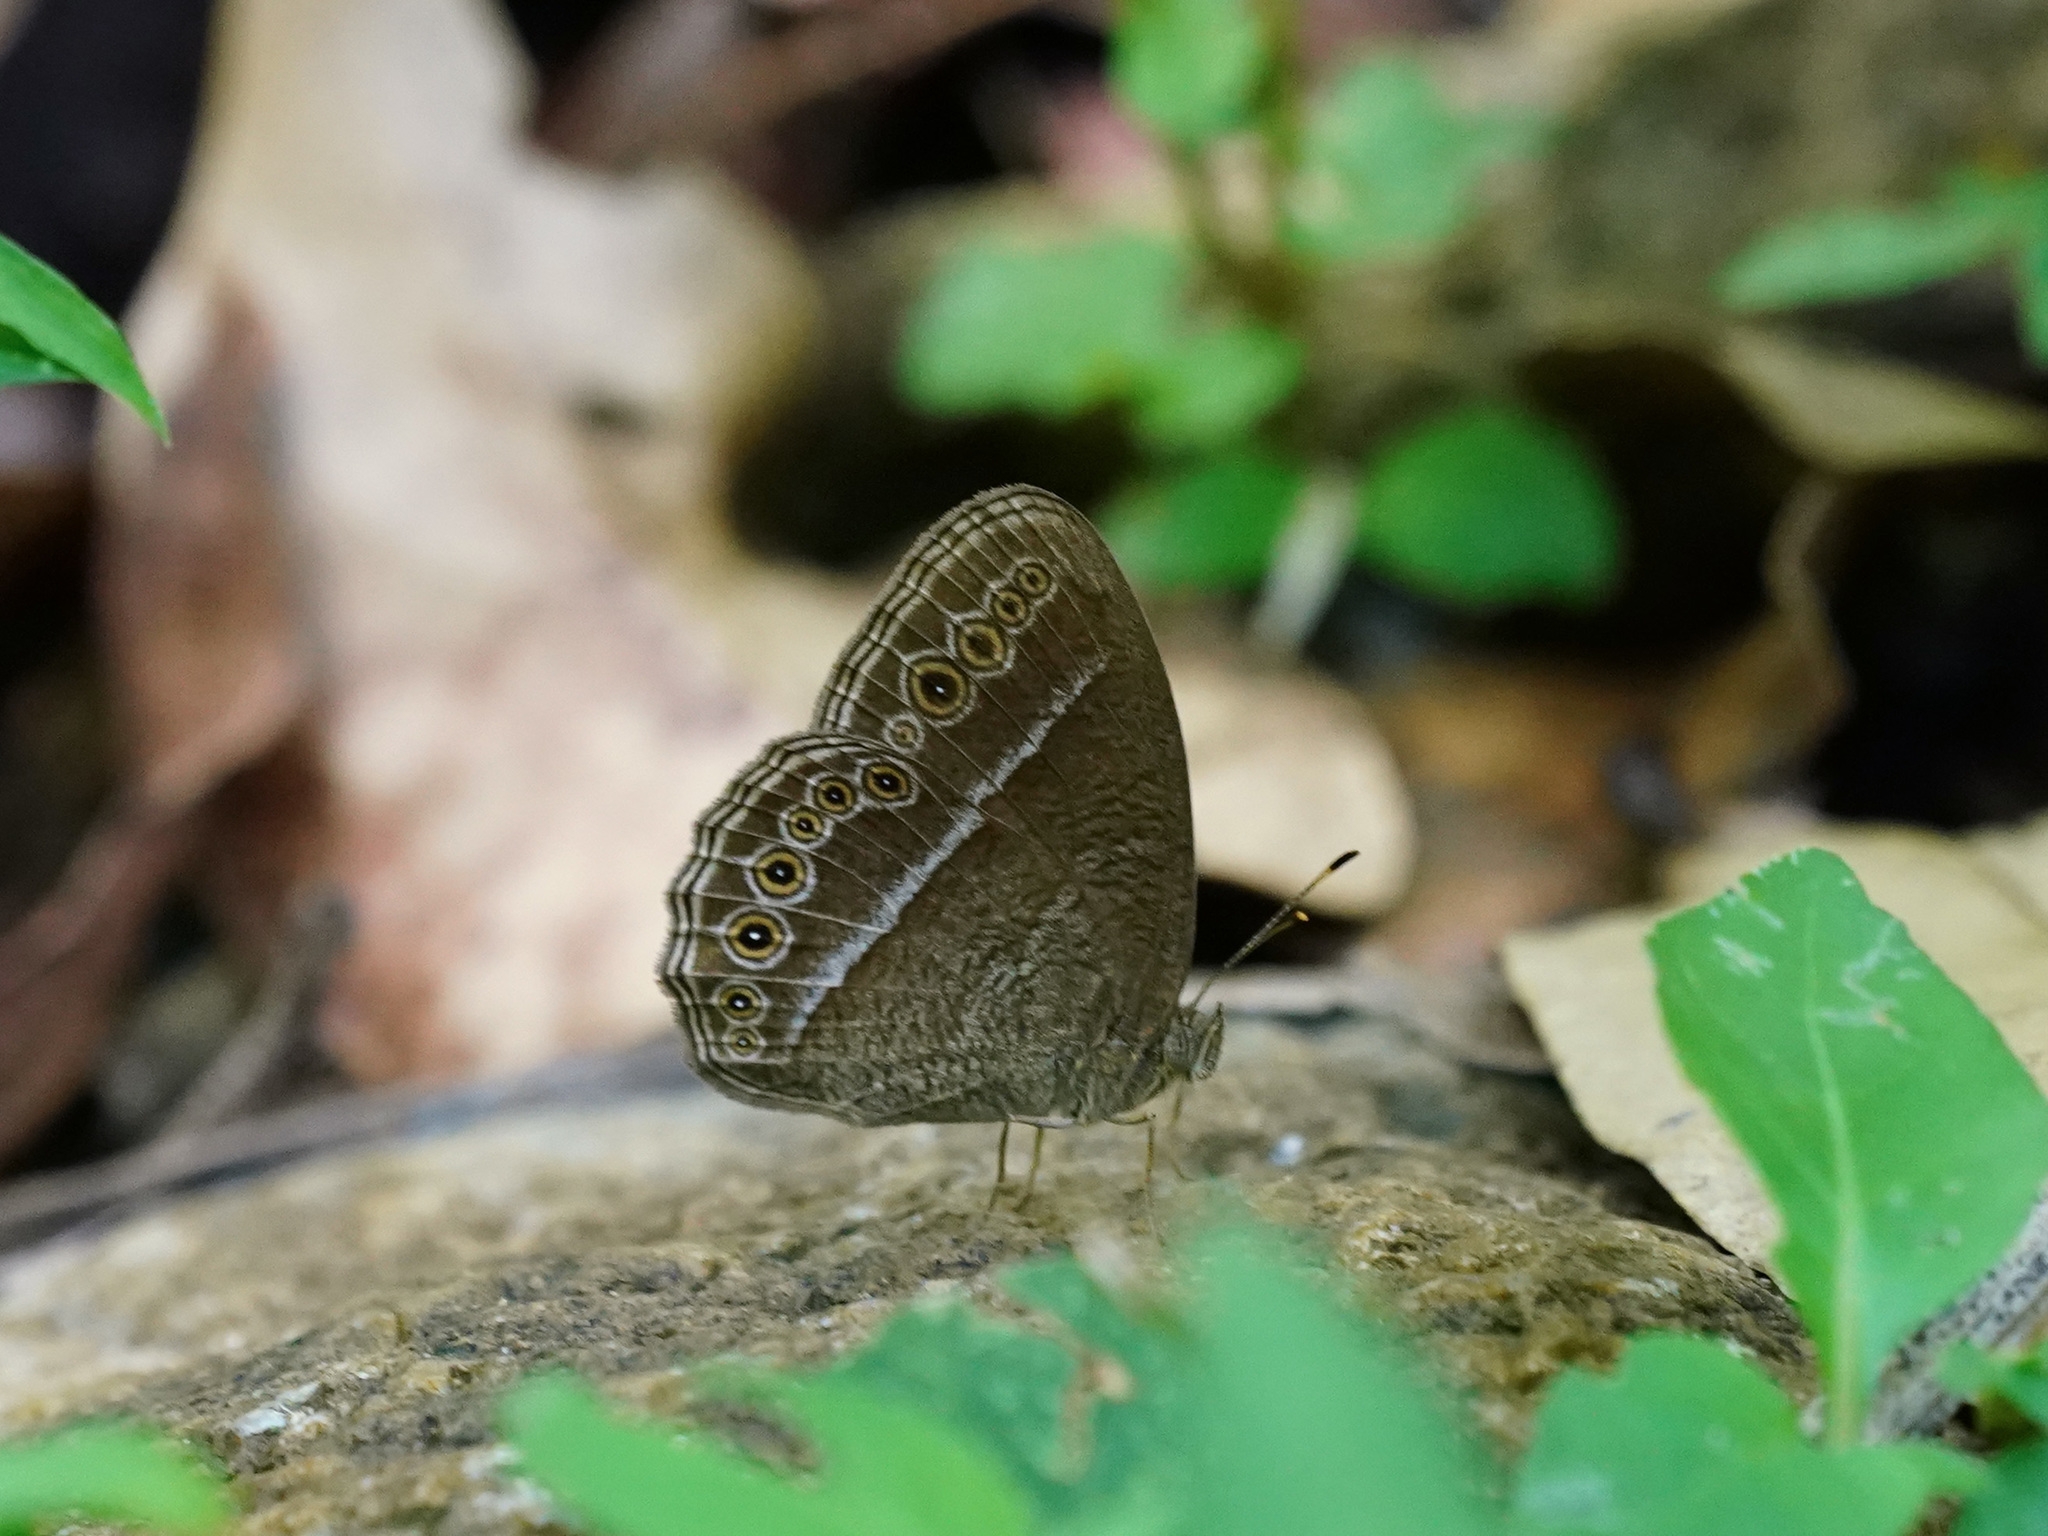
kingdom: Animalia
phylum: Arthropoda
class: Insecta
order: Lepidoptera
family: Nymphalidae
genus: Mycalesis
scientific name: Mycalesis Telinga janardana
